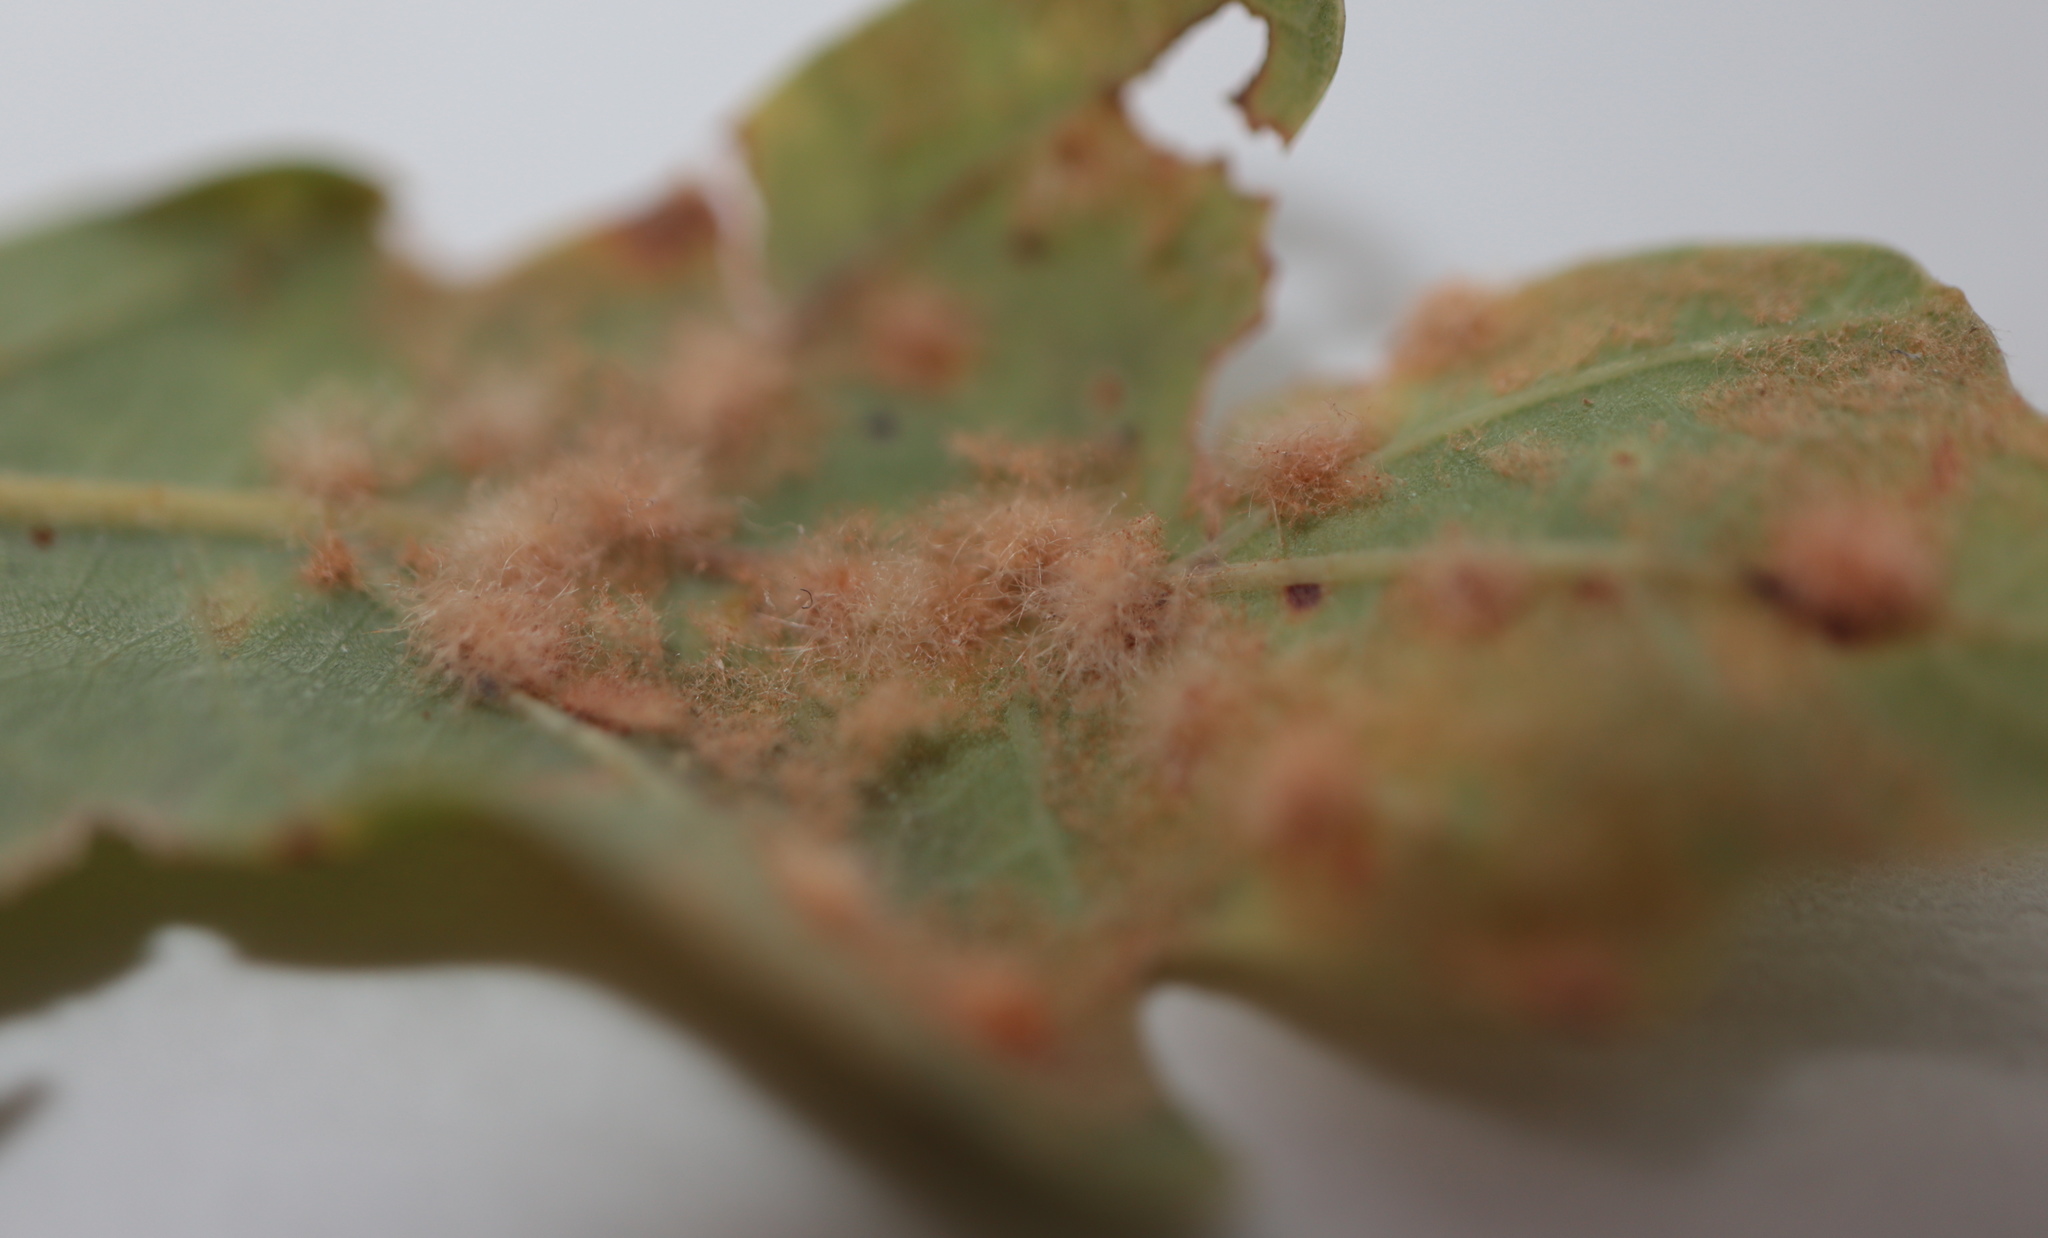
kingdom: Animalia
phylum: Arthropoda
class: Insecta
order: Hymenoptera
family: Cynipidae
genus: Neuroterus
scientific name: Neuroterus quercusverrucarum
